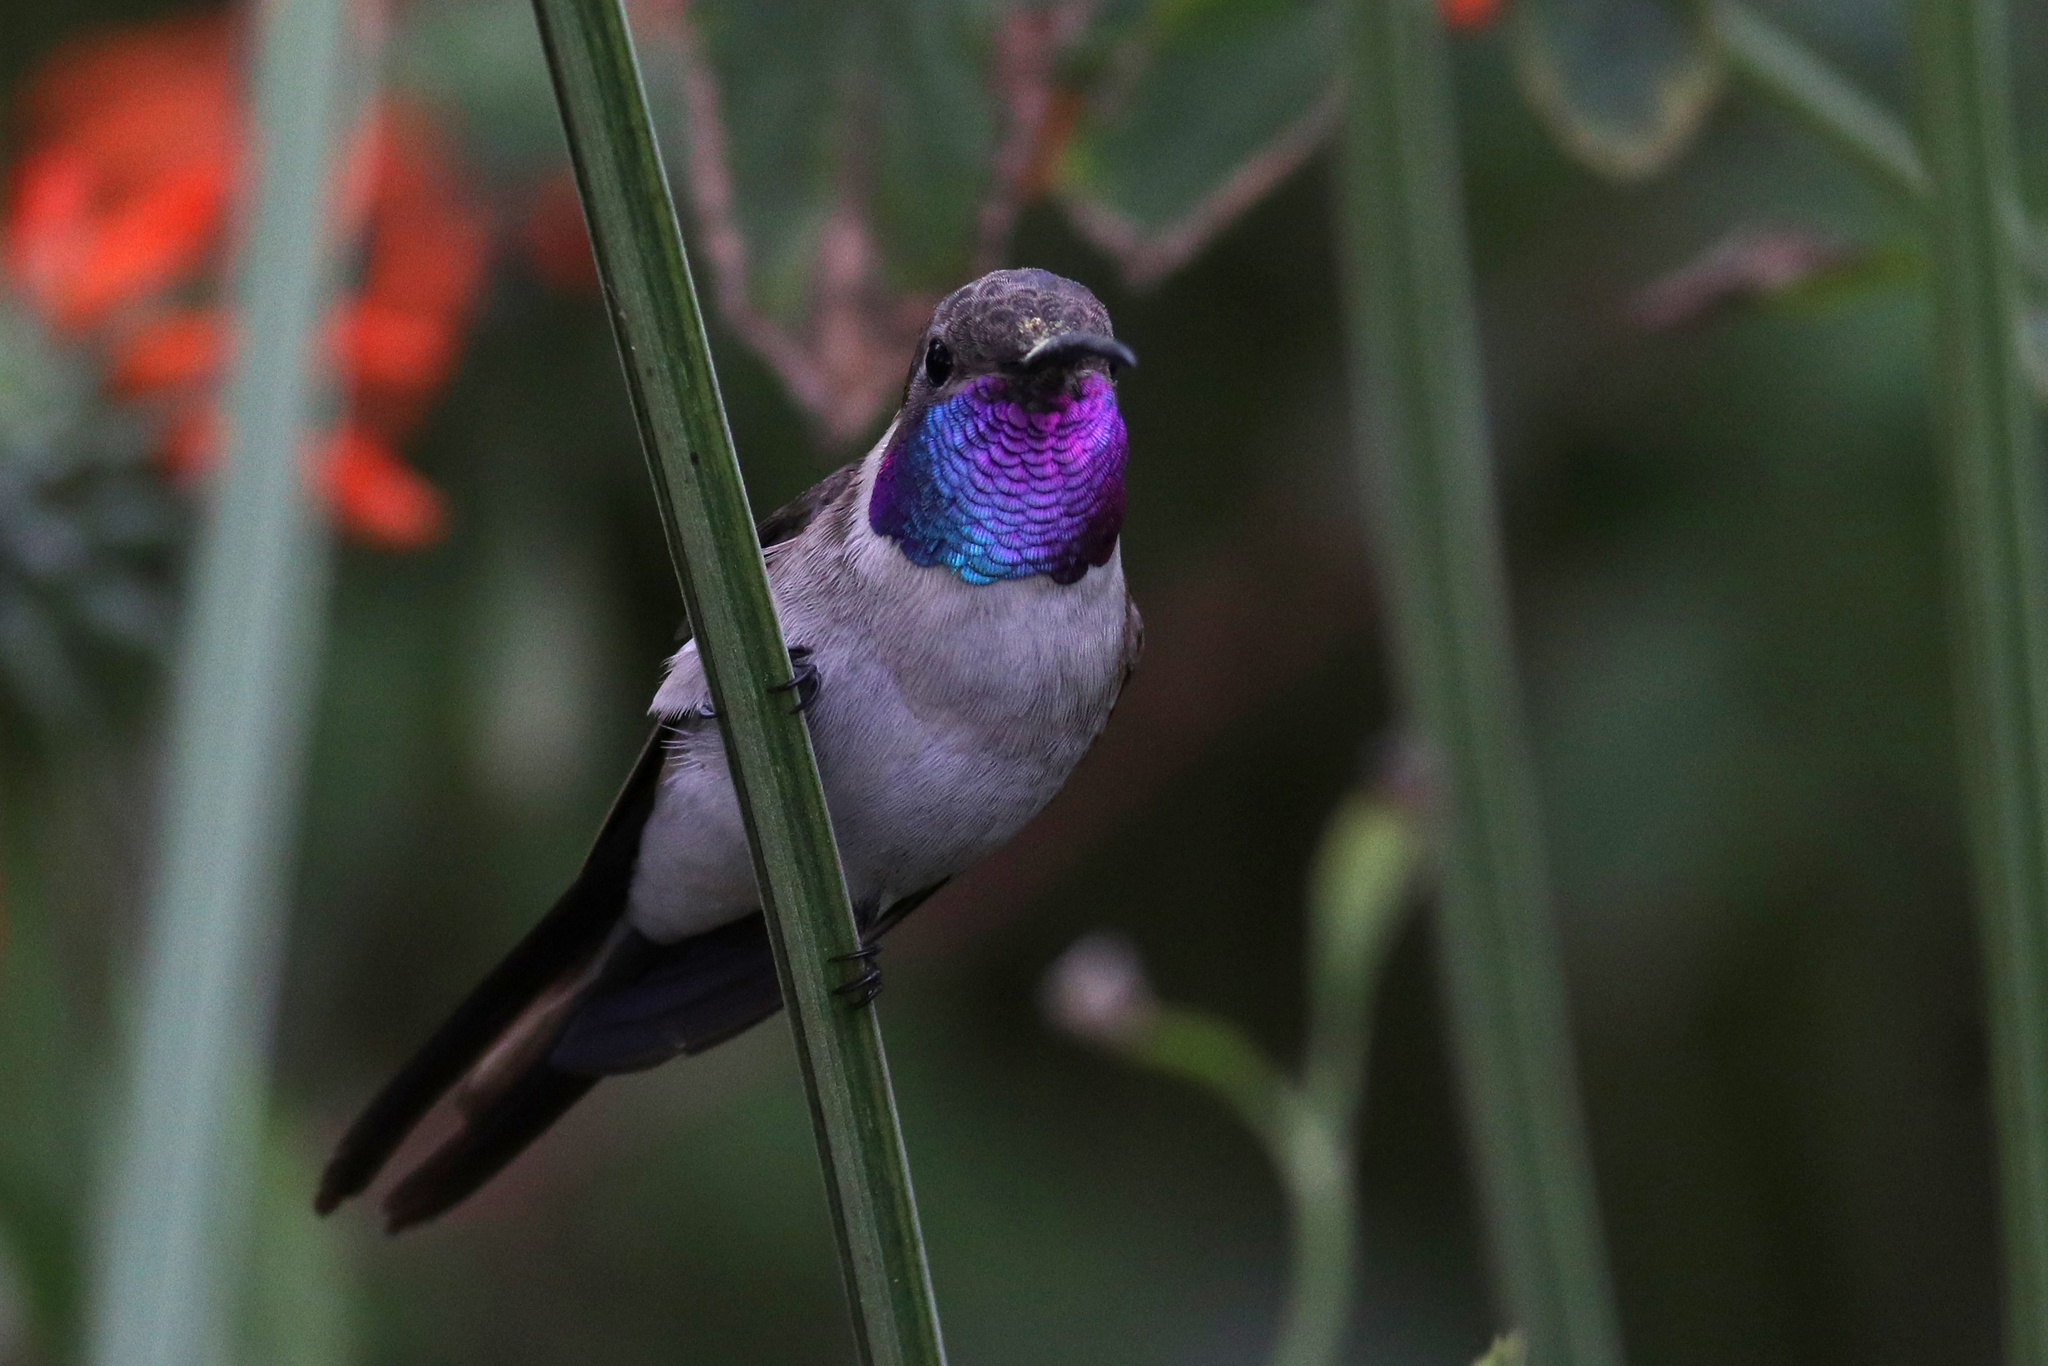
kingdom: Animalia
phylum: Chordata
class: Aves
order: Apodiformes
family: Trochilidae
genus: Rhodopis
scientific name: Rhodopis vesper
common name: Oasis hummingbird
